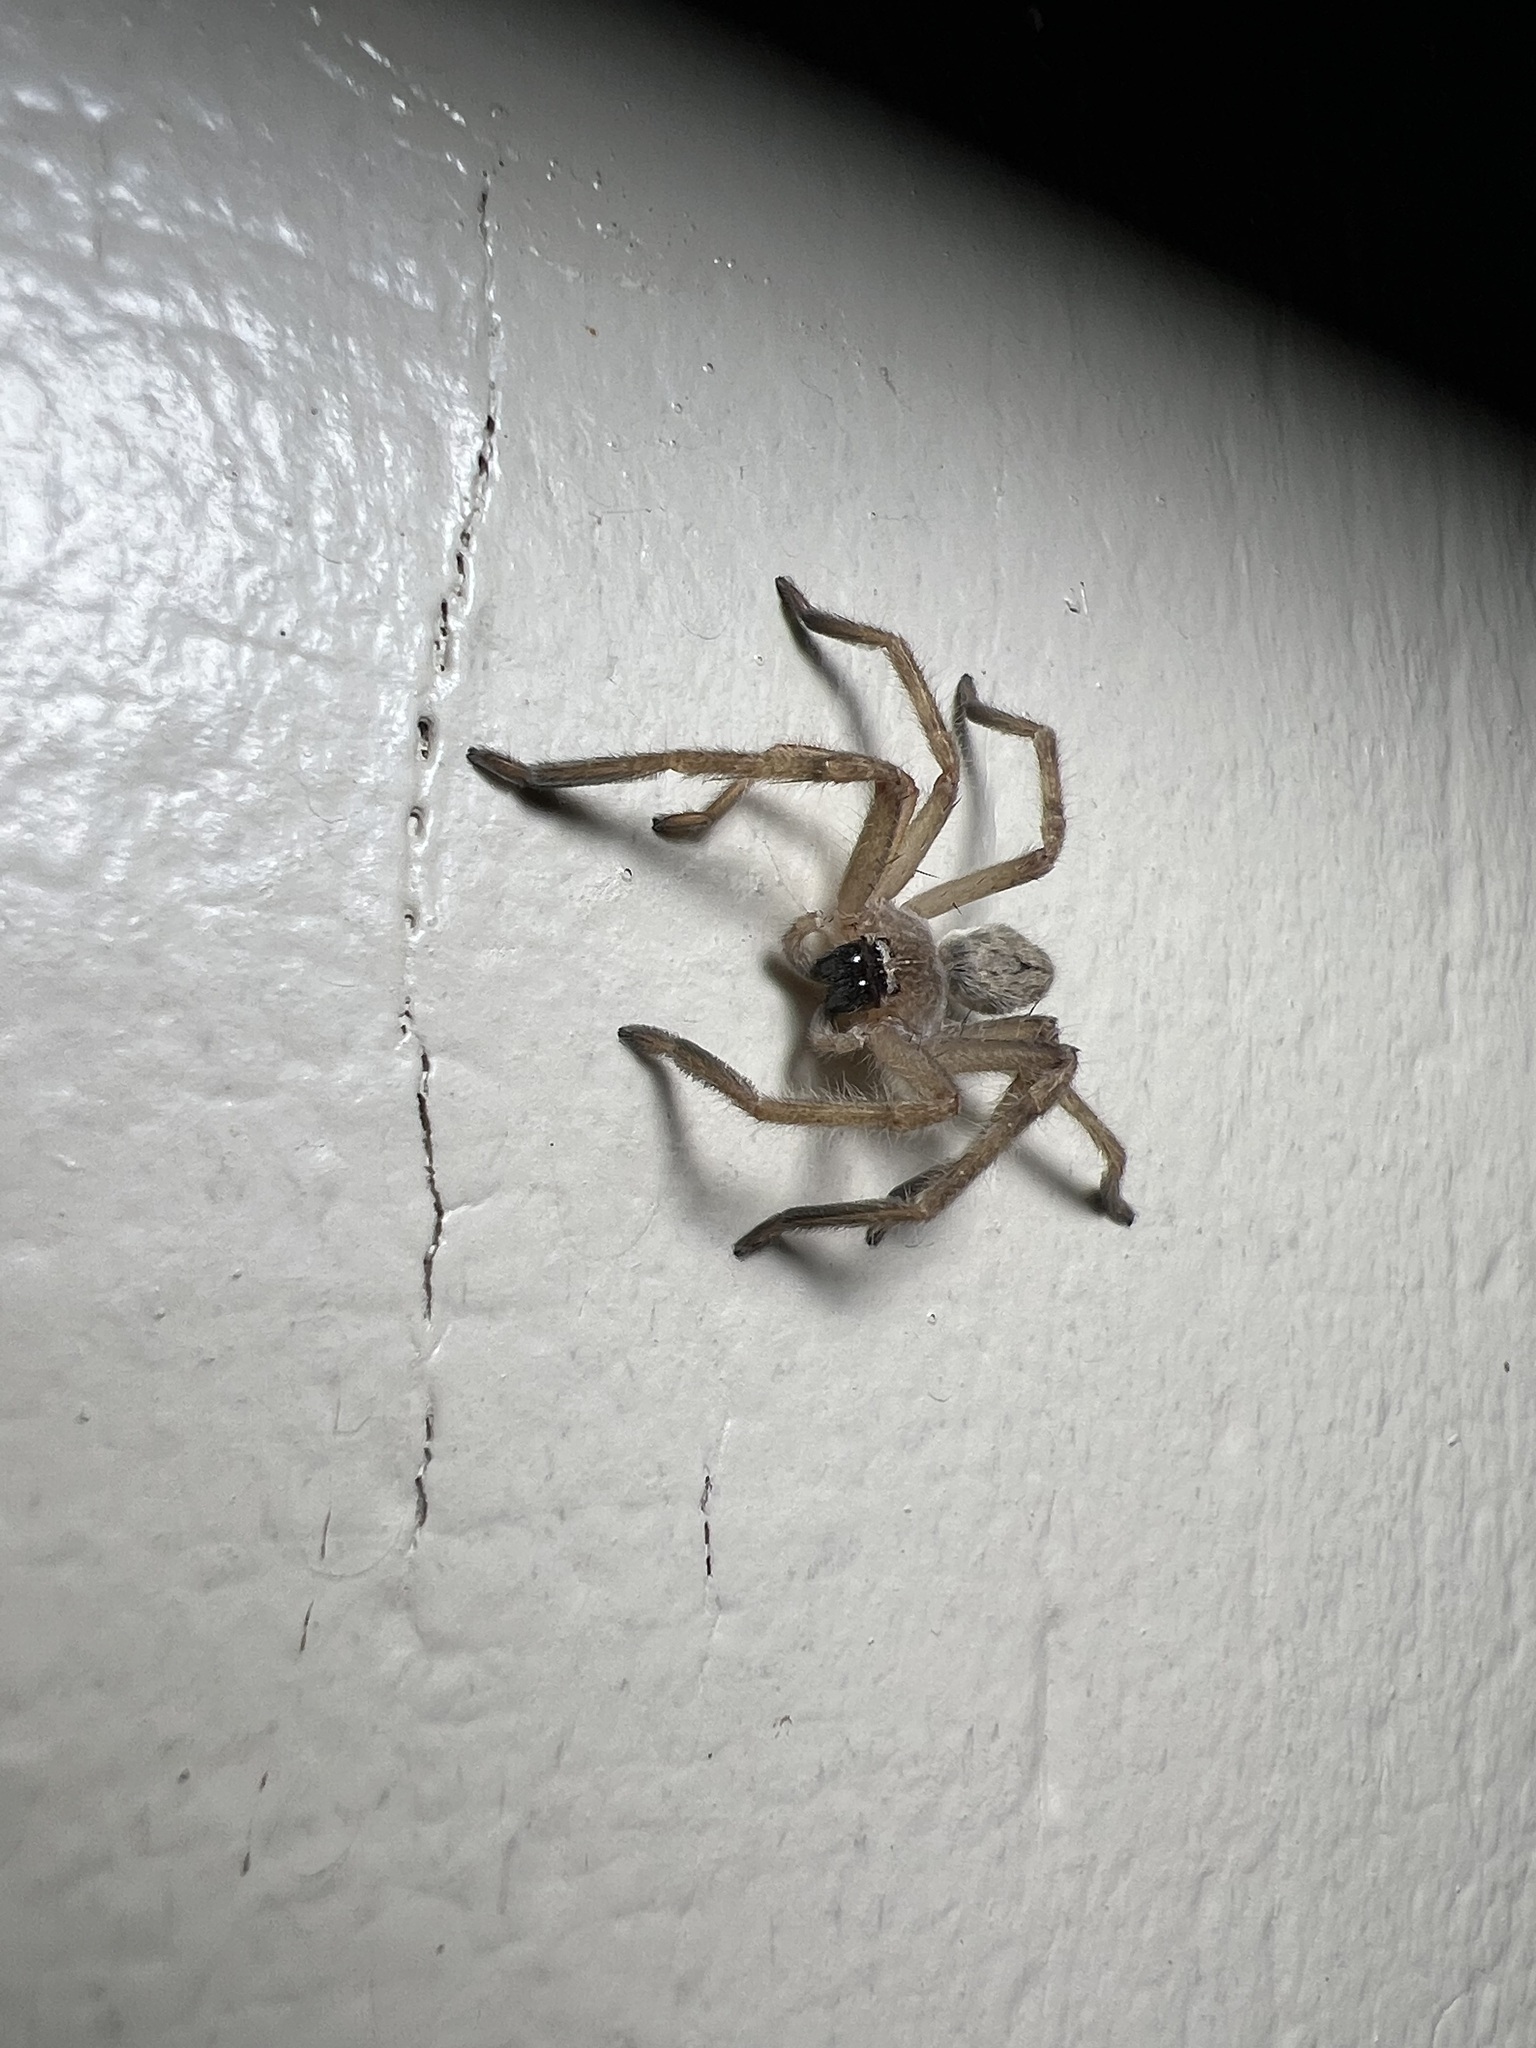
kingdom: Animalia
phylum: Arthropoda
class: Arachnida
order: Araneae
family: Sparassidae
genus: Olios
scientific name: Olios giganteus
